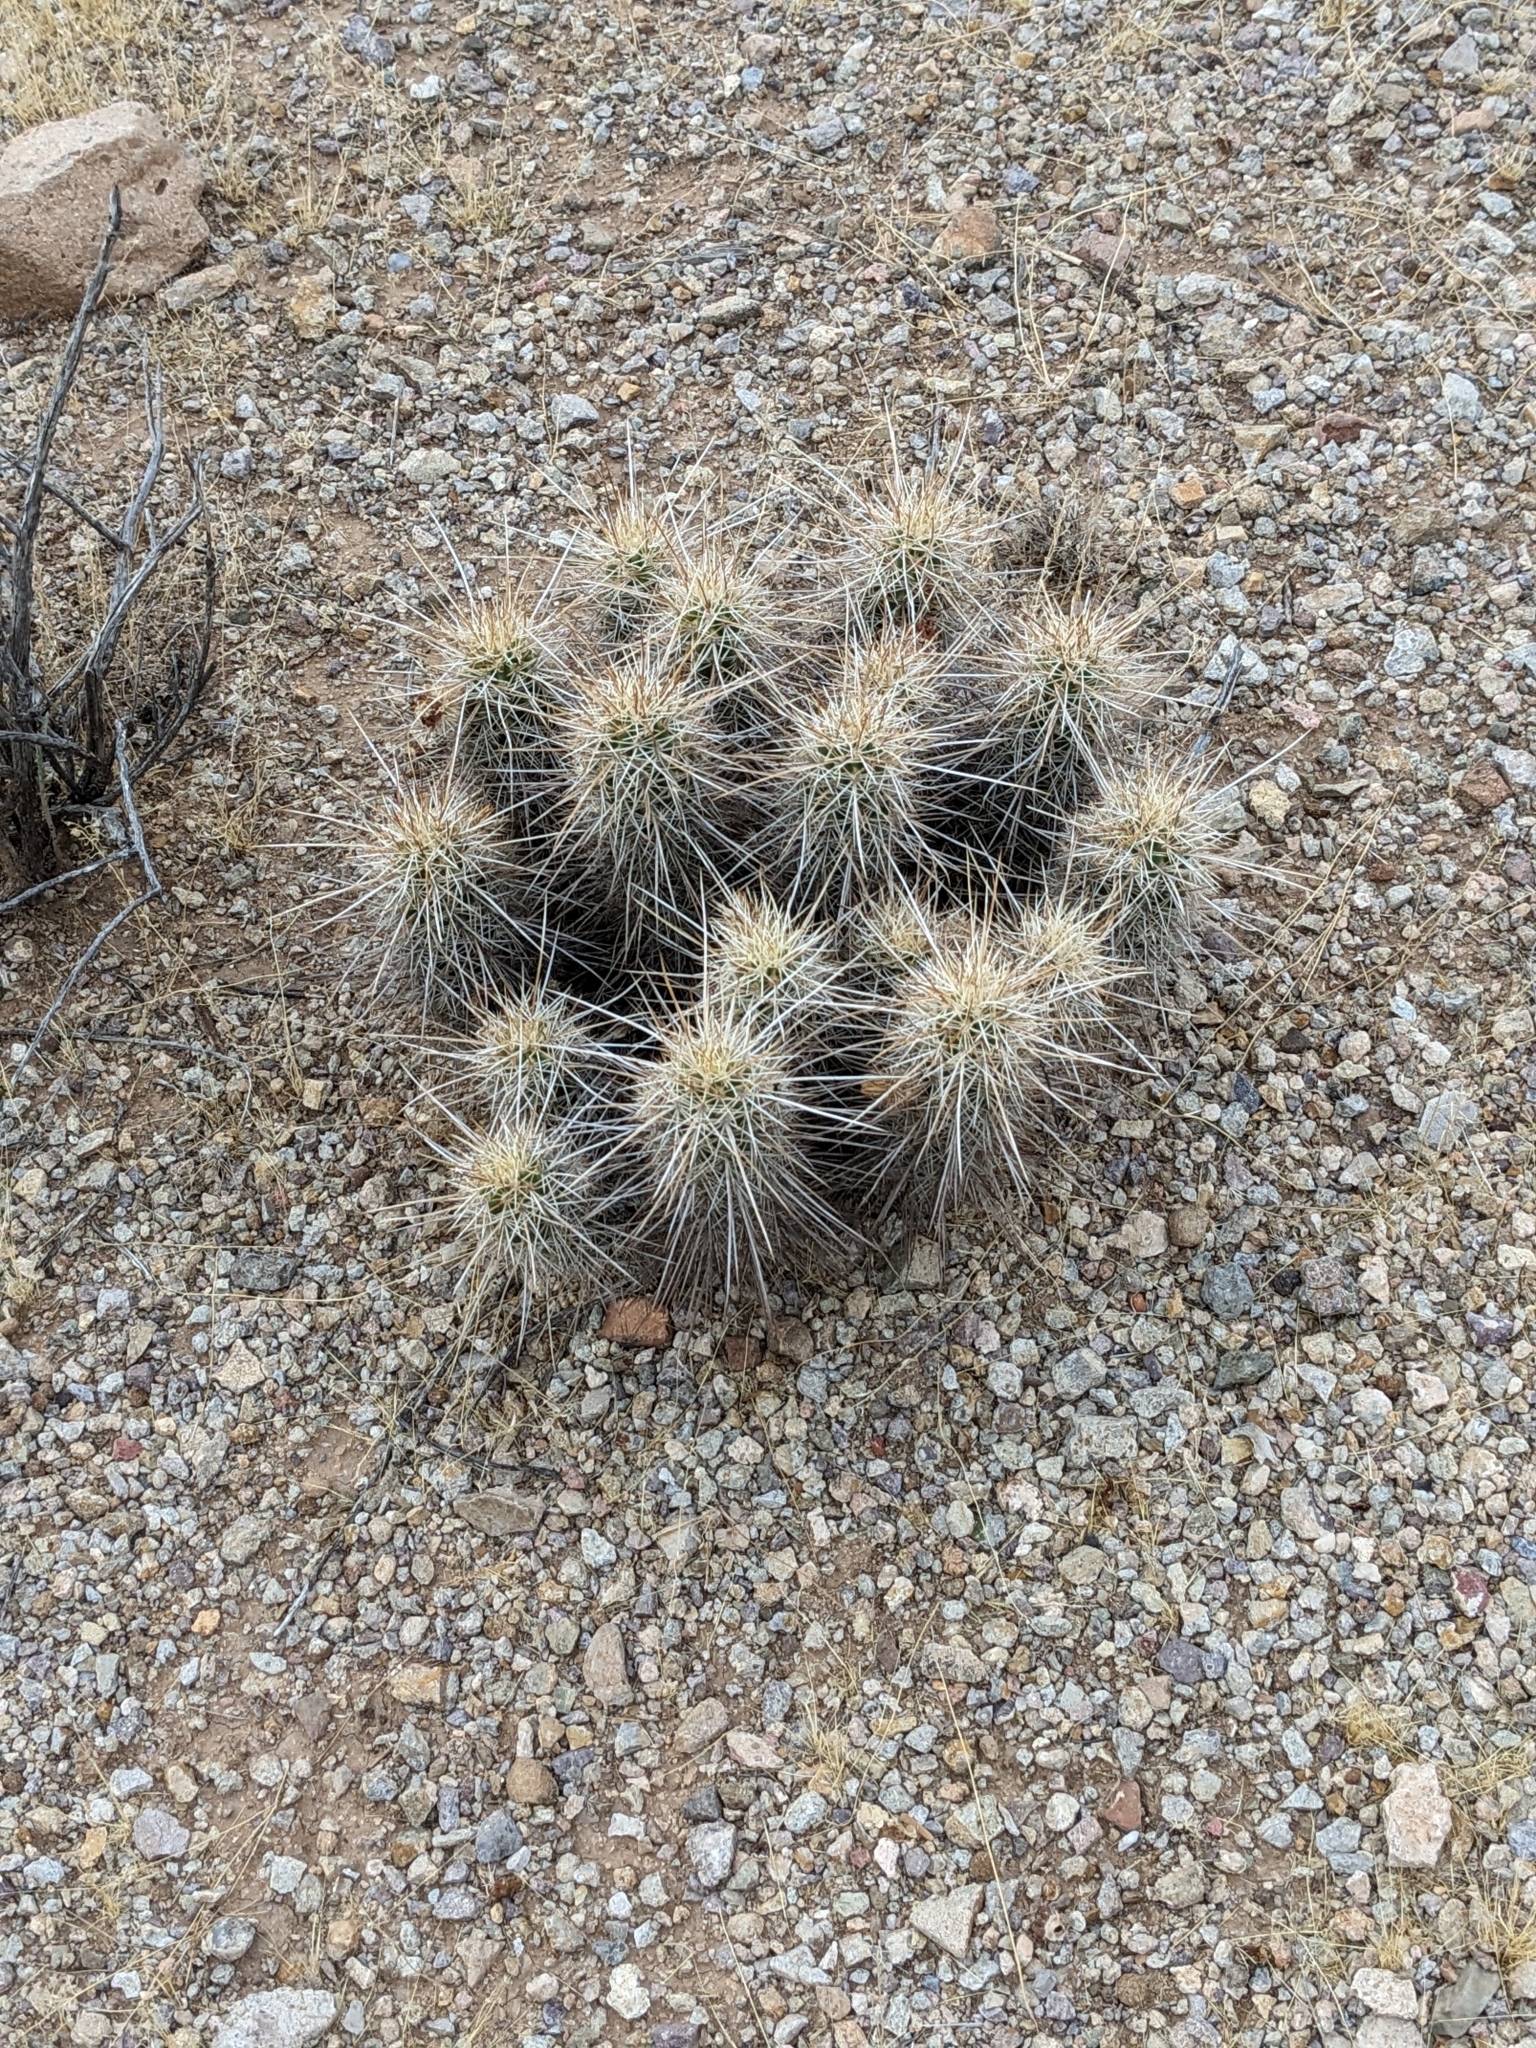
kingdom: Plantae
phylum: Tracheophyta
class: Magnoliopsida
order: Caryophyllales
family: Cactaceae
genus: Echinocereus
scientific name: Echinocereus fasciculatus
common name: Bundle hedgehog
